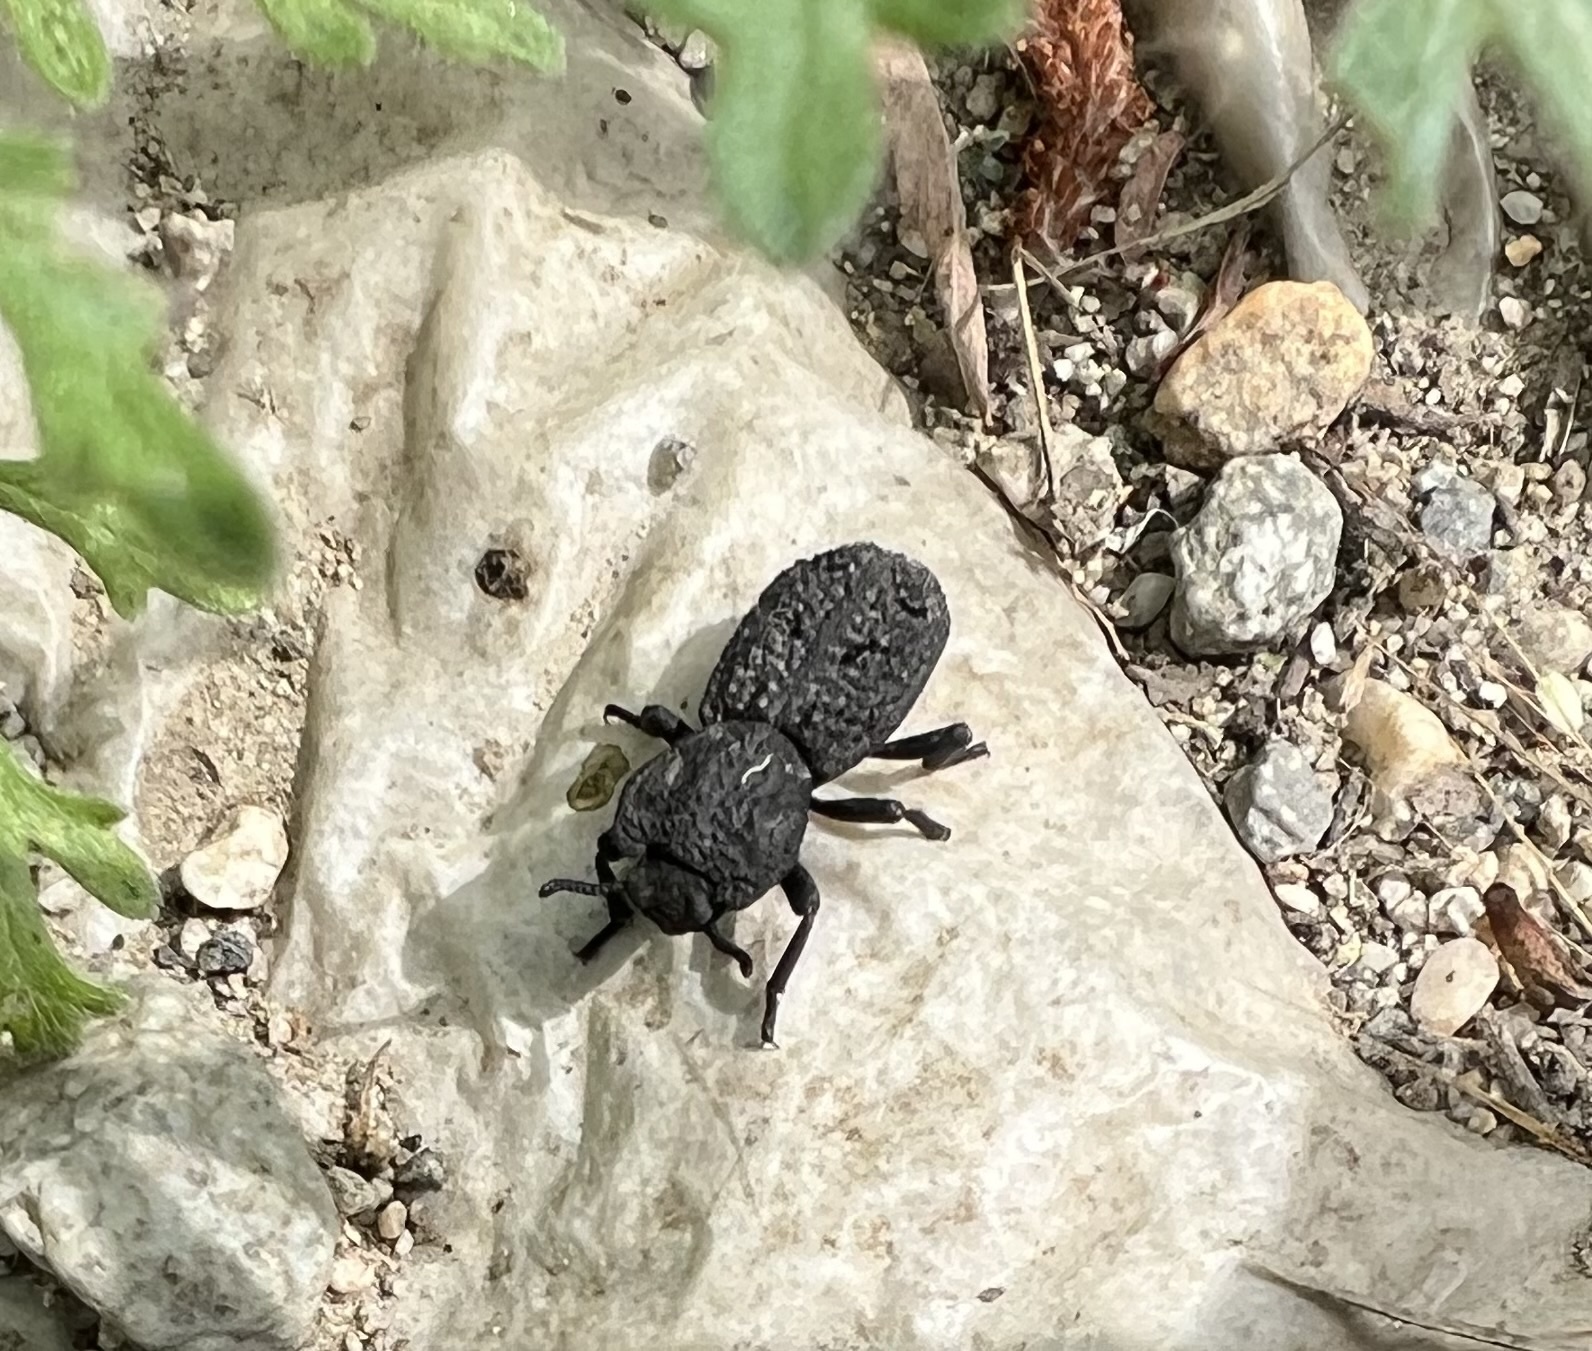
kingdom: Animalia
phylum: Arthropoda
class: Insecta
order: Coleoptera
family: Zopheridae
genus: Phloeodes
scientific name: Phloeodes diabolicus
